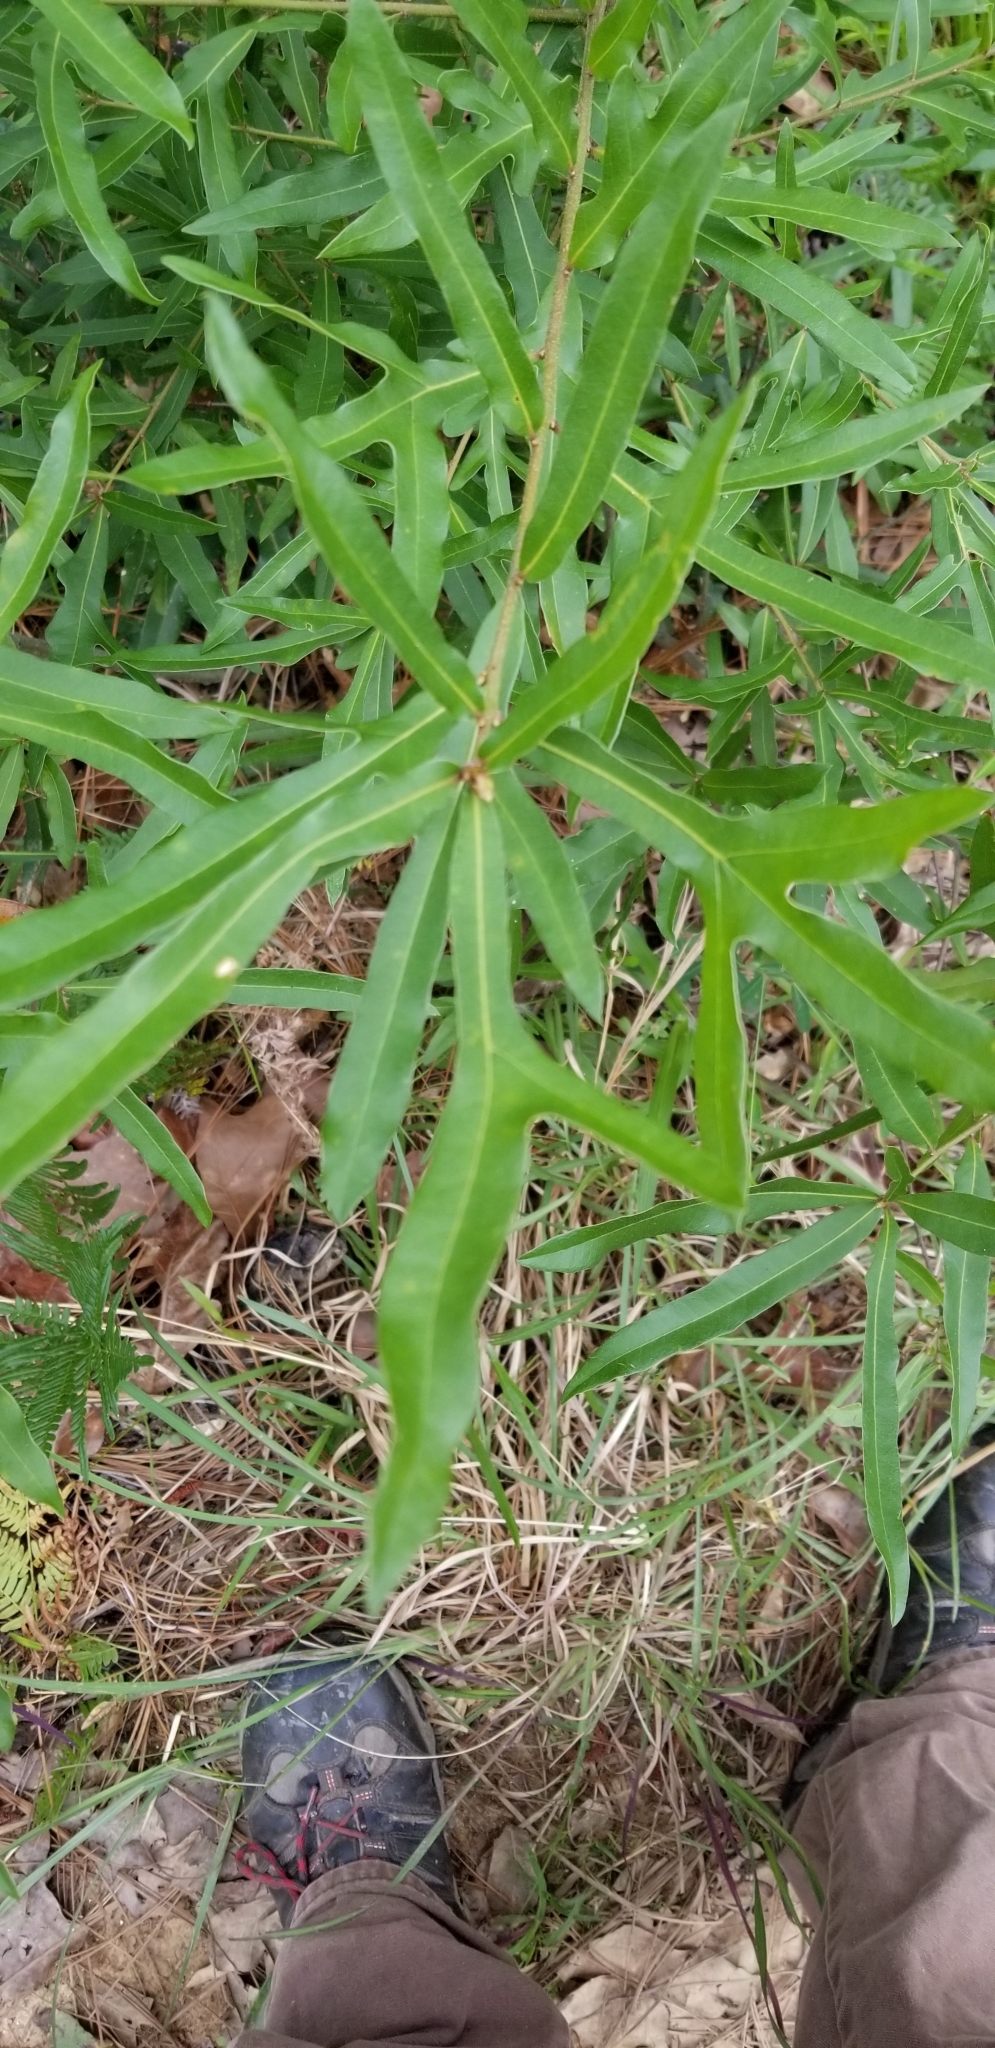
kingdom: Plantae
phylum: Tracheophyta
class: Magnoliopsida
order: Fagales
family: Fagaceae
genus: Quercus
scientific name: Quercus nigra
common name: Water oak
